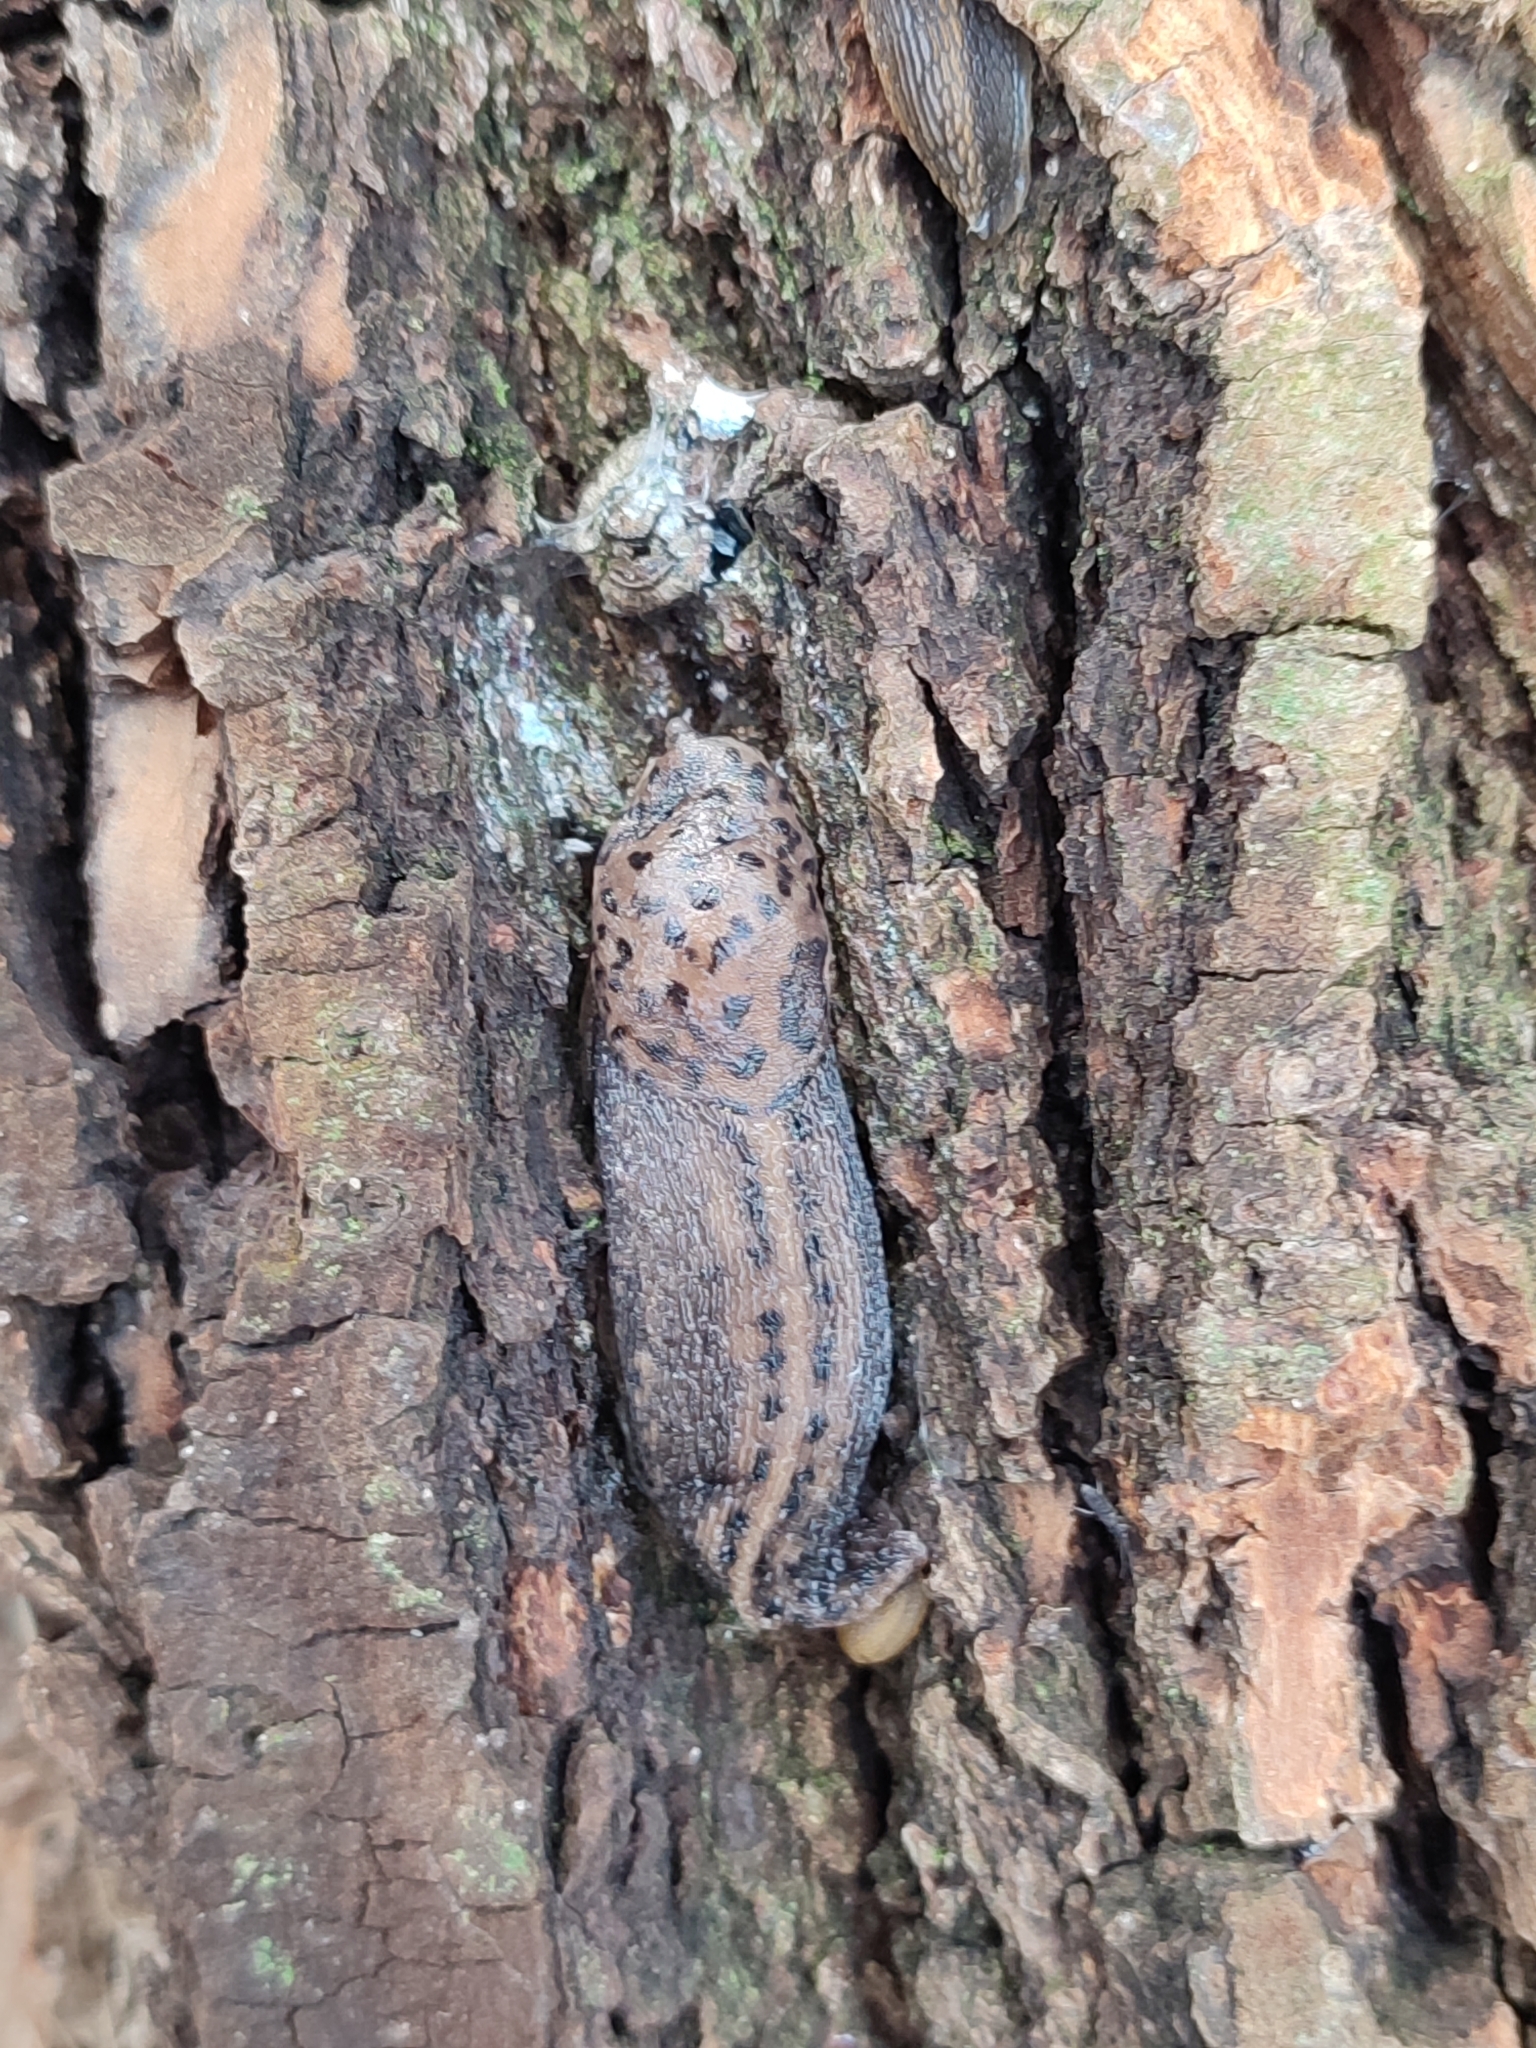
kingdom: Animalia
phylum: Mollusca
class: Gastropoda
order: Stylommatophora
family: Limacidae
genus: Limax
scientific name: Limax maximus
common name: Great grey slug
